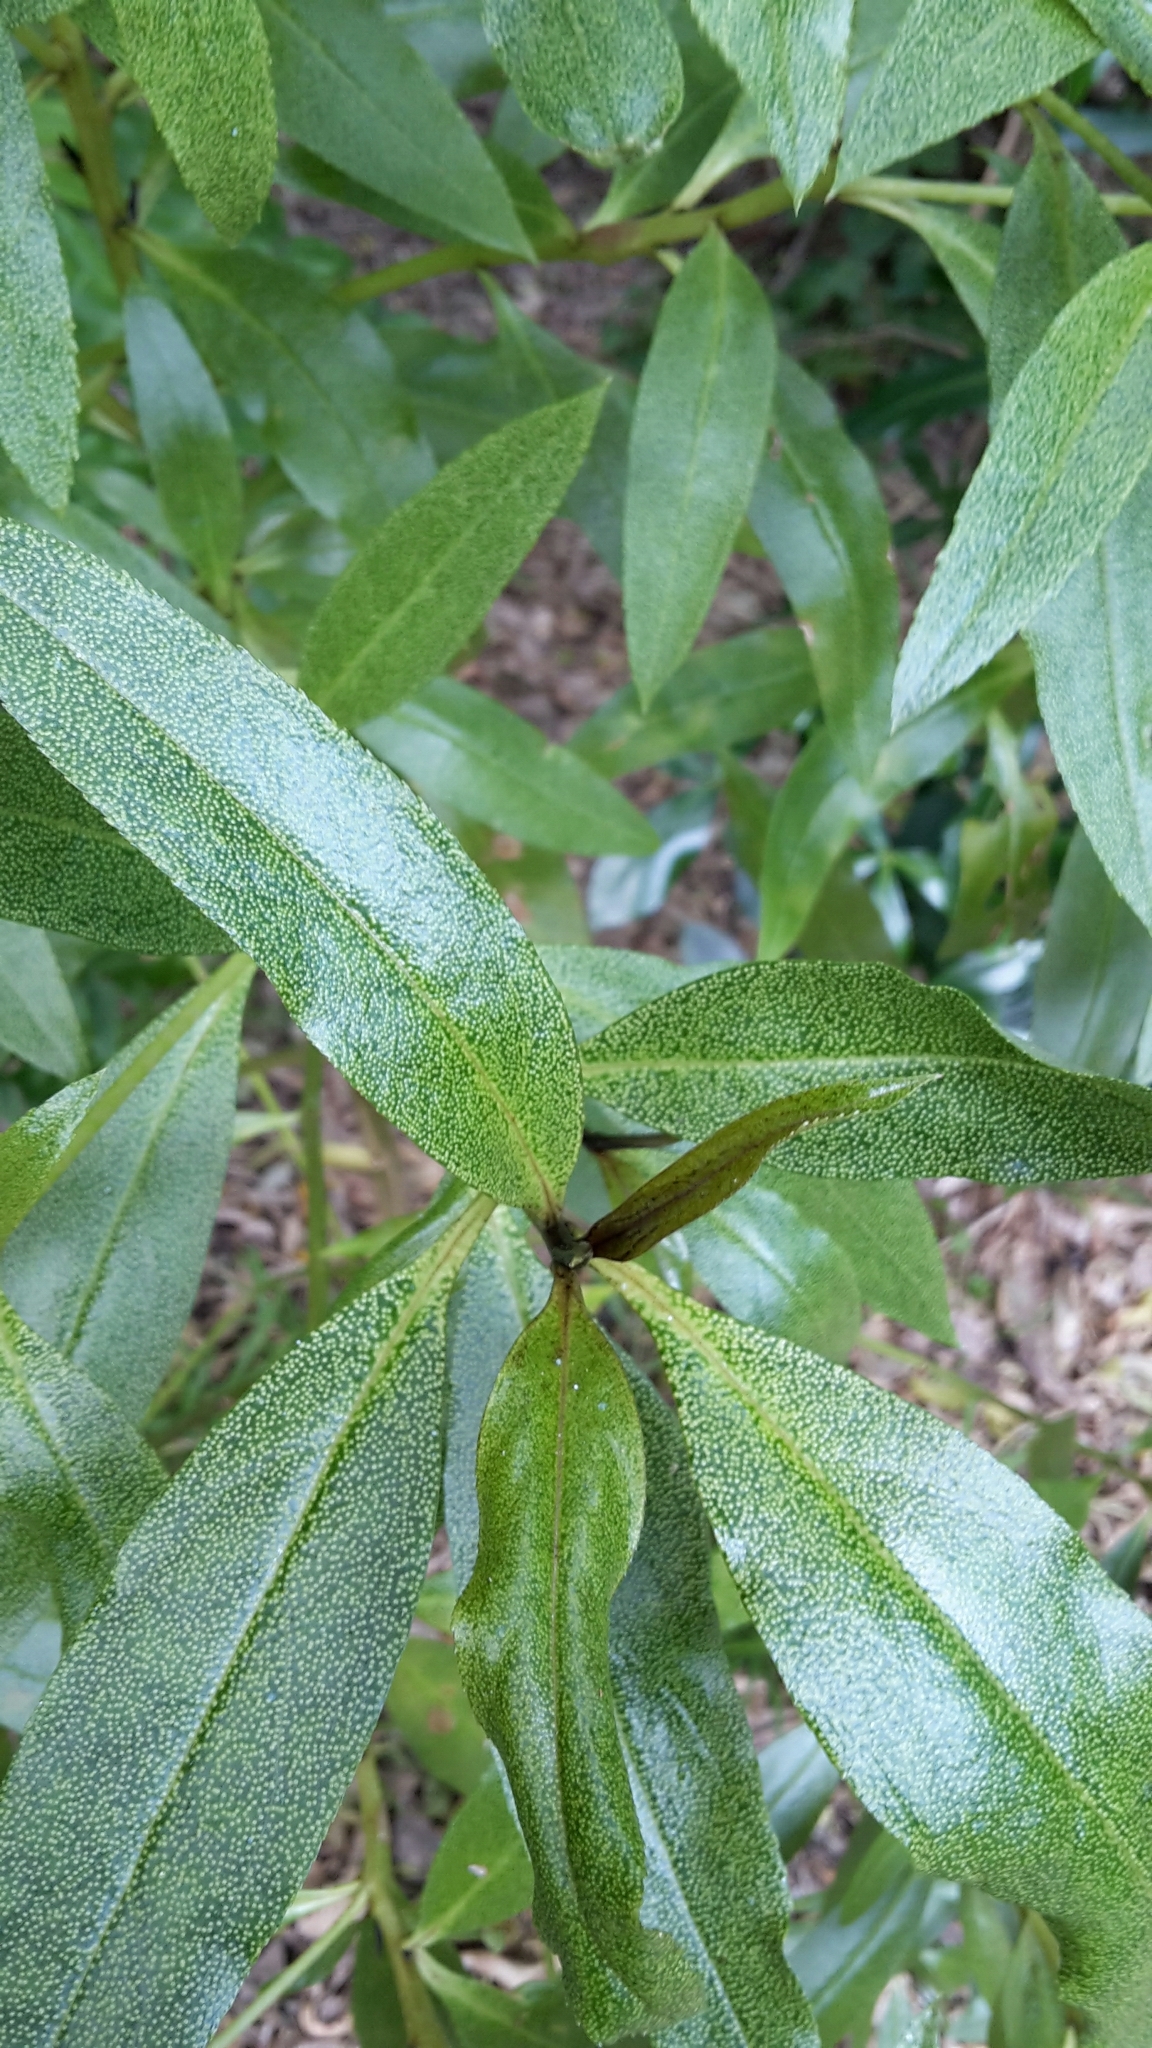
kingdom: Plantae
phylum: Tracheophyta
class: Magnoliopsida
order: Lamiales
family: Scrophulariaceae
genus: Myoporum
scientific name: Myoporum laetum
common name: Ngaio tree
